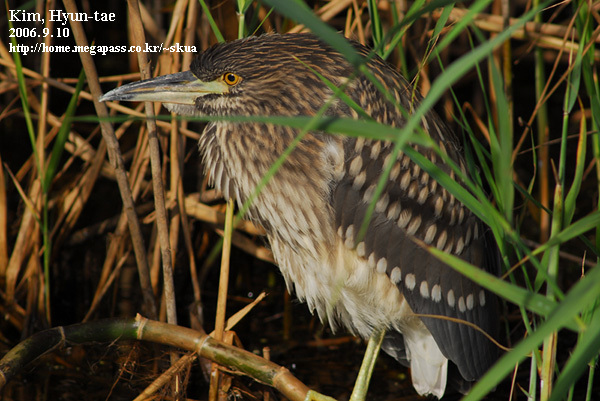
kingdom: Animalia
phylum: Chordata
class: Aves
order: Pelecaniformes
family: Ardeidae
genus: Nycticorax
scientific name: Nycticorax nycticorax
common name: Black-crowned night heron
